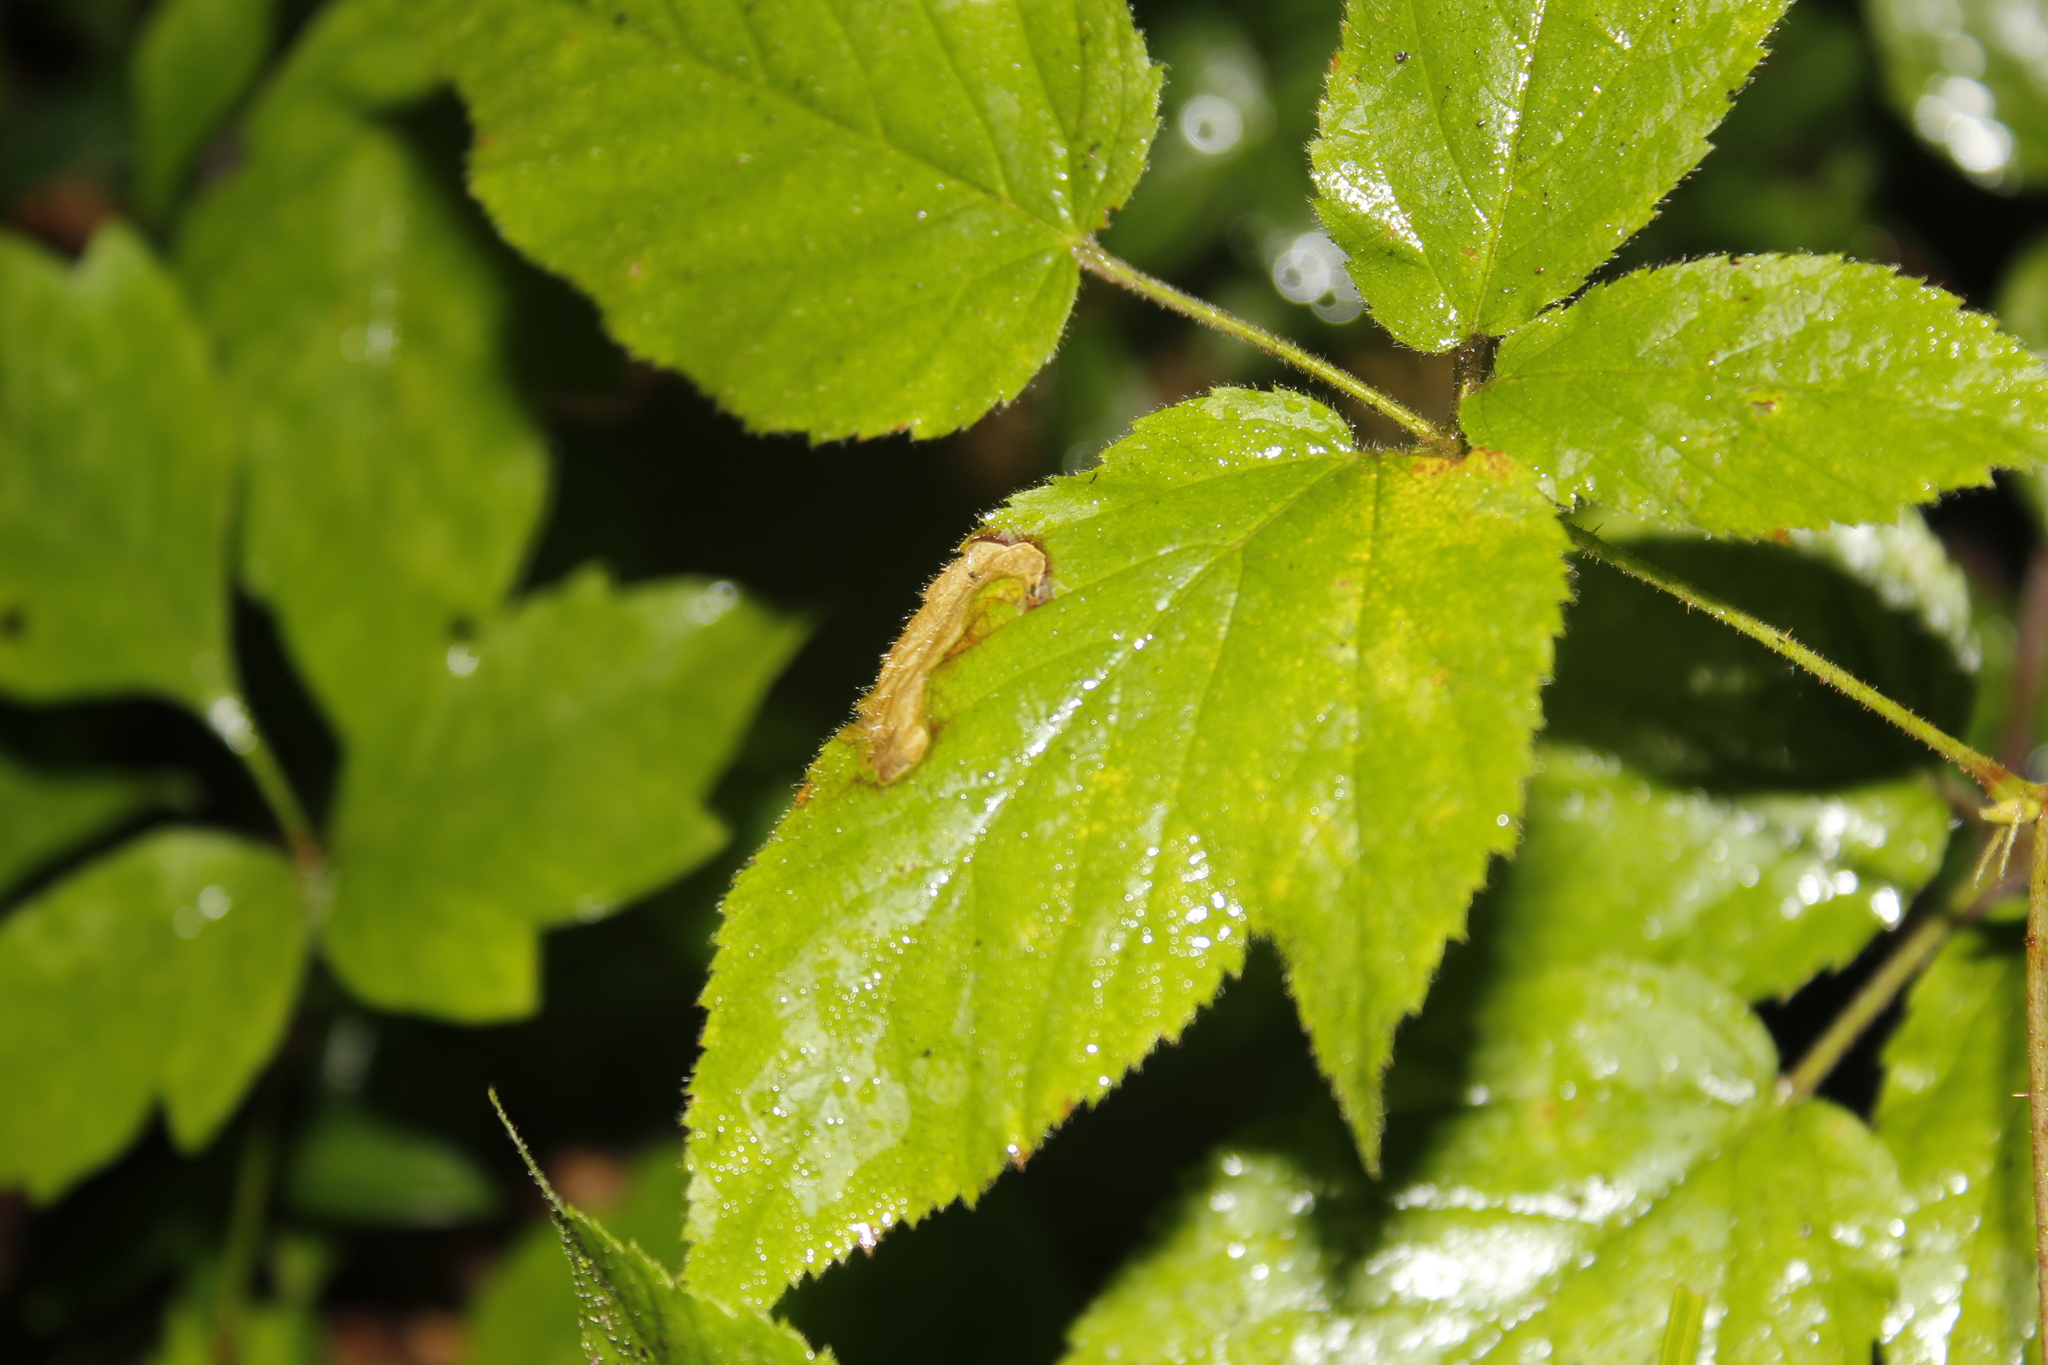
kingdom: Animalia
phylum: Arthropoda
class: Insecta
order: Hymenoptera
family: Tenthredinidae
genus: Metallus
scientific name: Metallus rohweri
